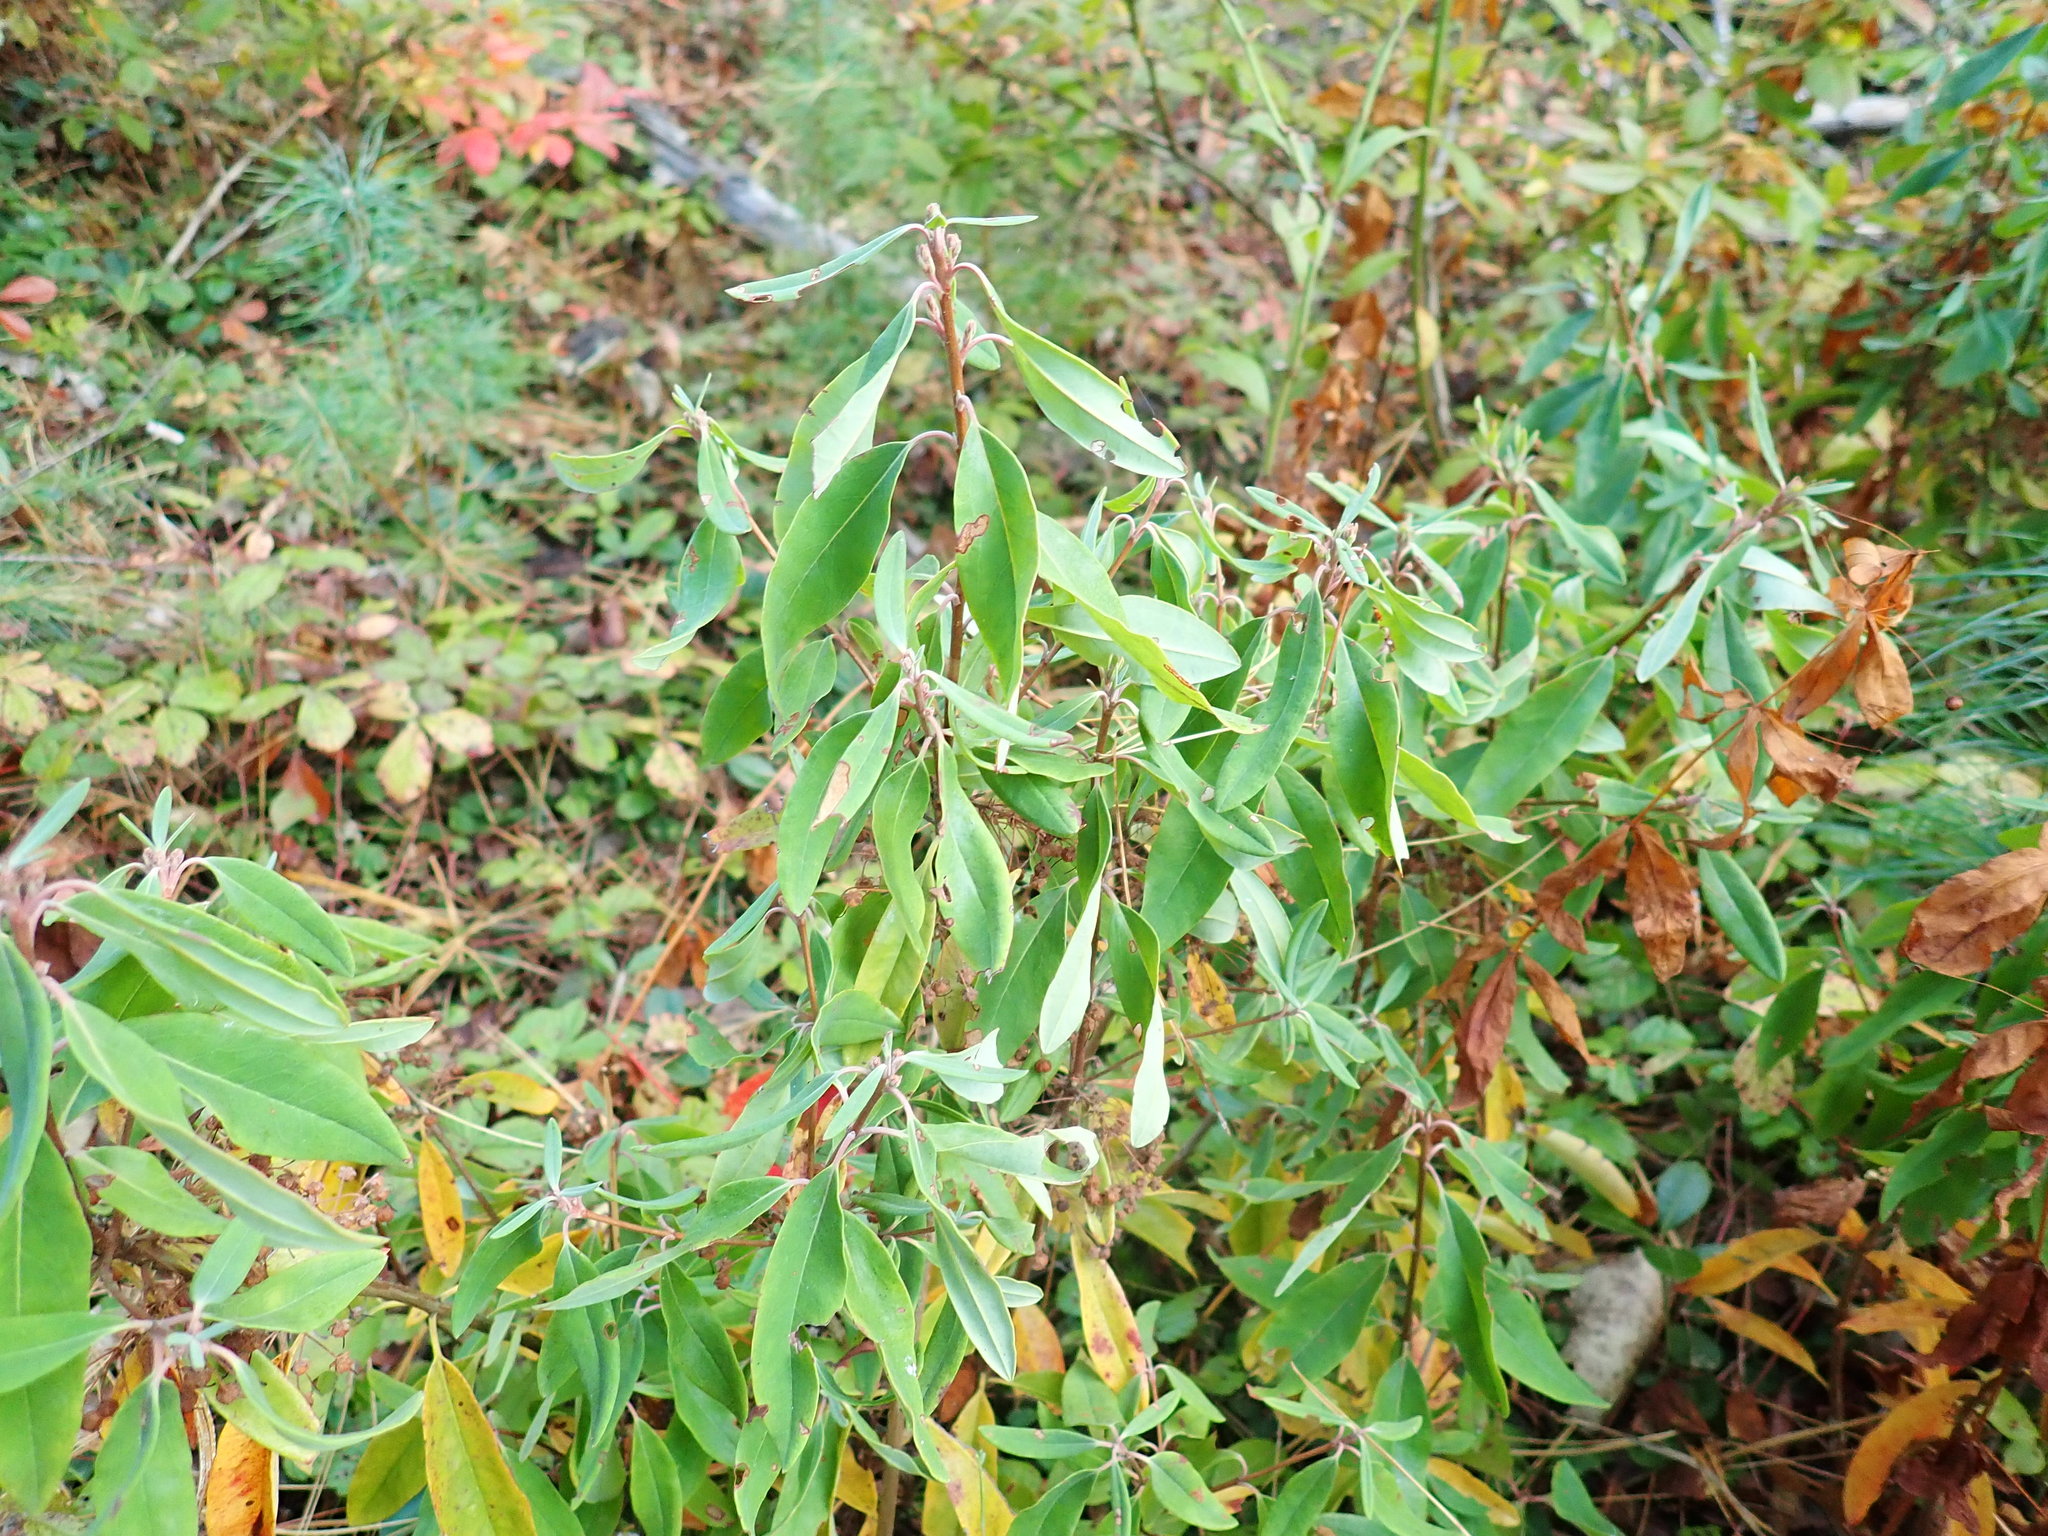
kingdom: Plantae
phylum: Tracheophyta
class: Magnoliopsida
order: Ericales
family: Ericaceae
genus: Kalmia
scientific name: Kalmia angustifolia
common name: Sheep-laurel
